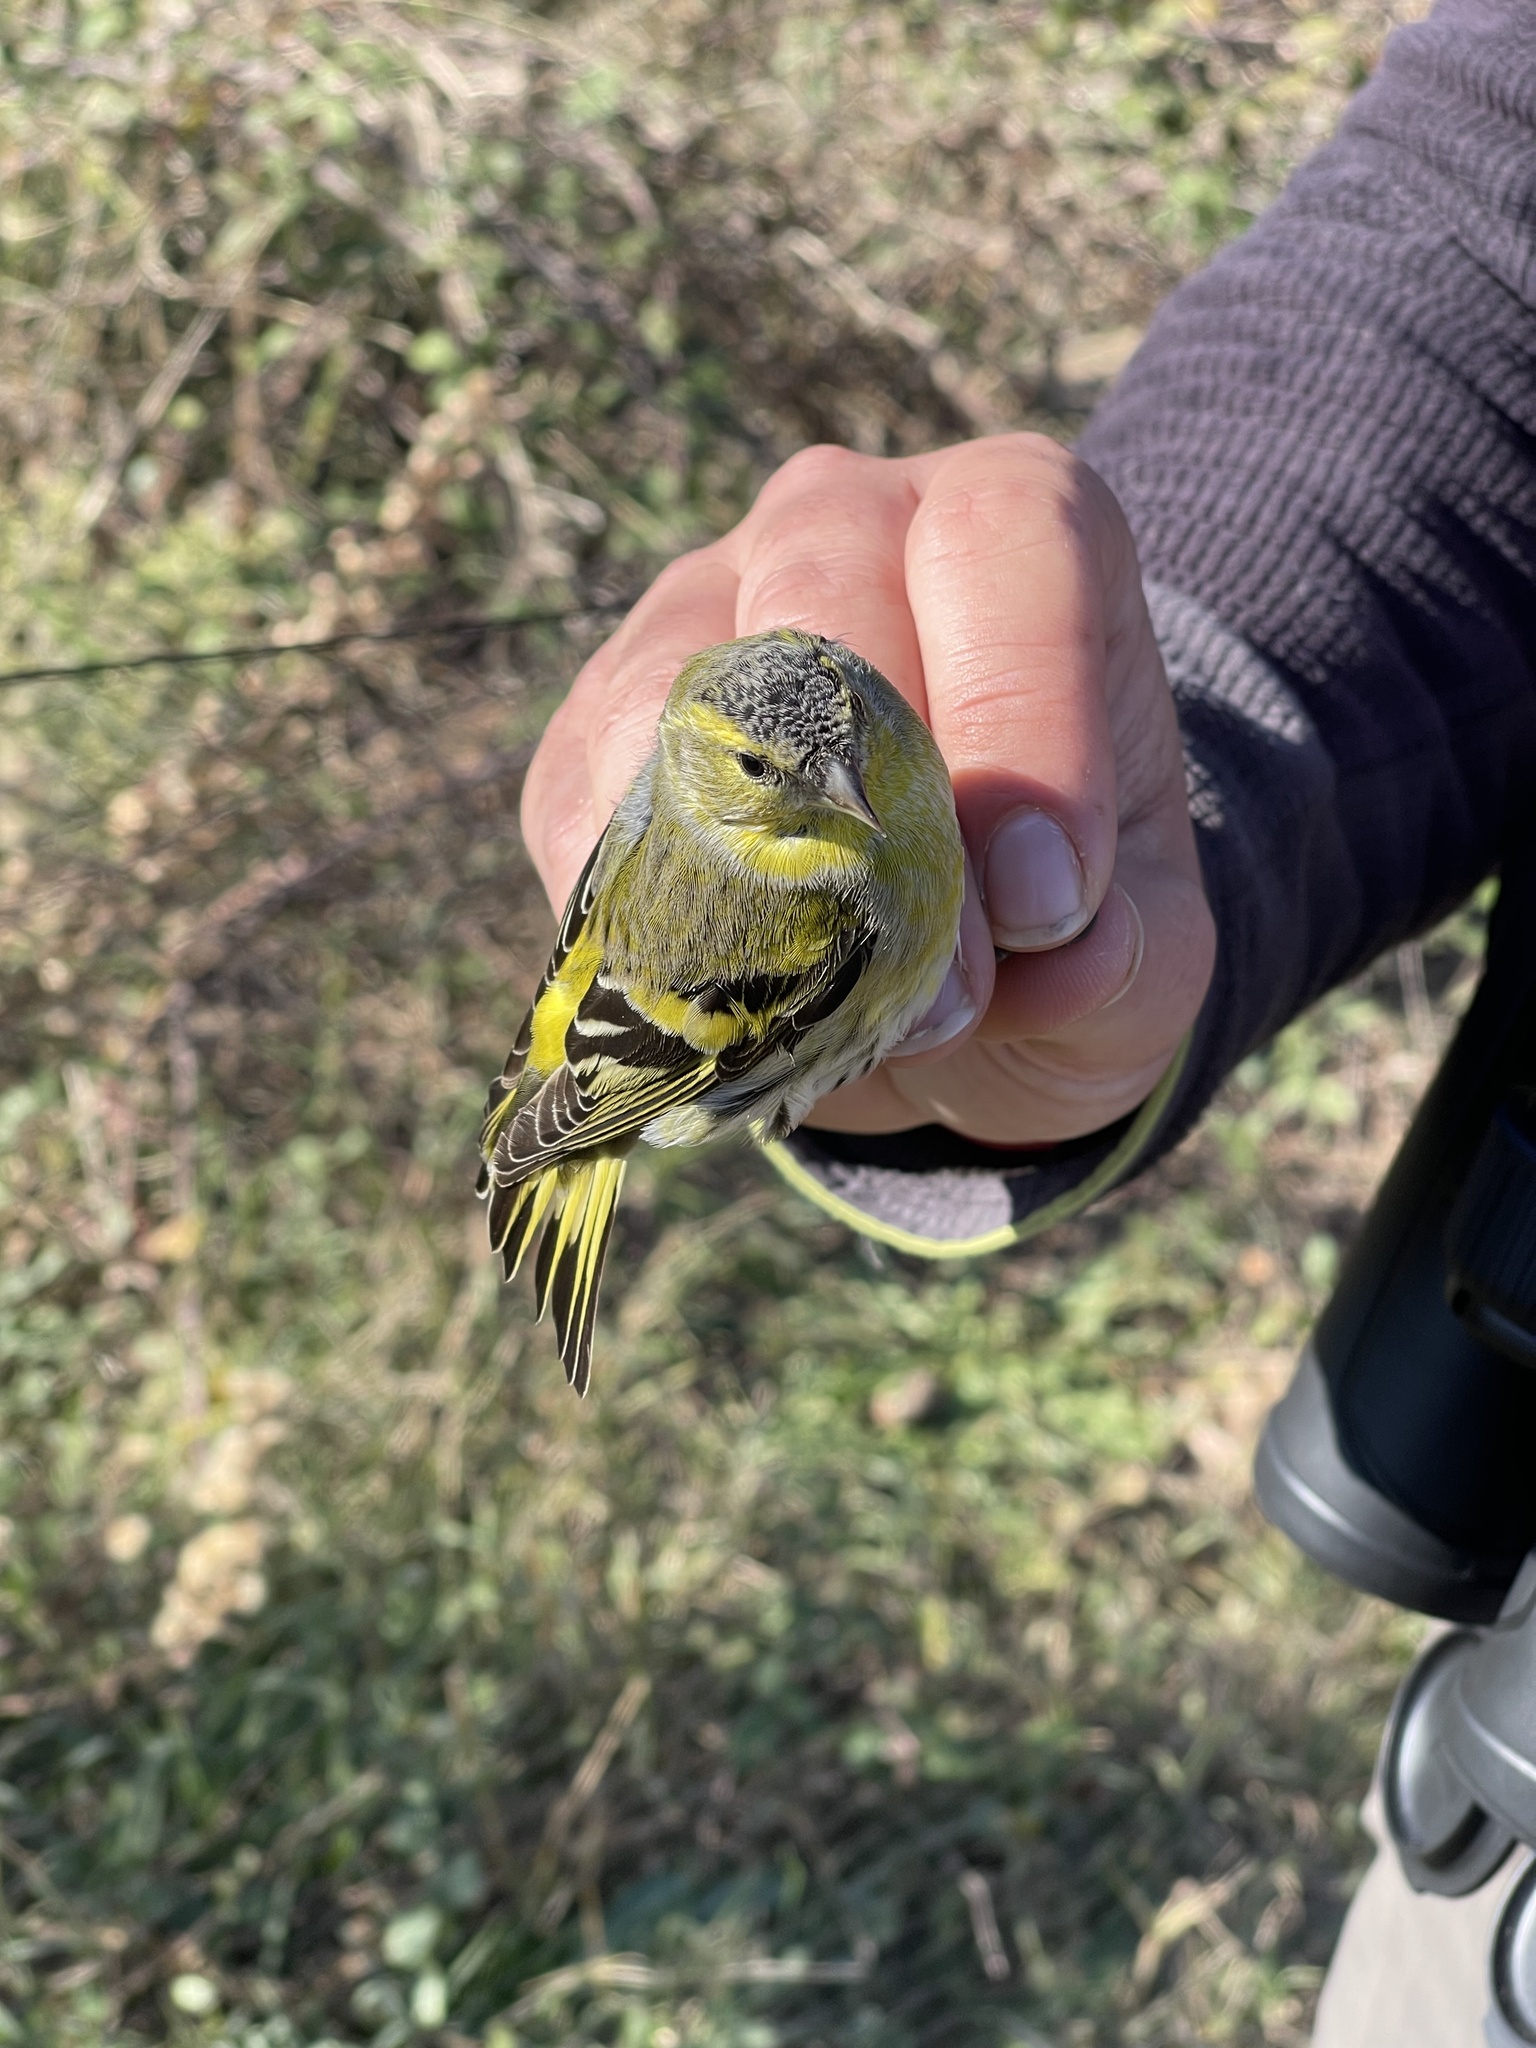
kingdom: Animalia
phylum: Chordata
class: Aves
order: Passeriformes
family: Fringillidae
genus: Spinus
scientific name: Spinus spinus
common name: Eurasian siskin
